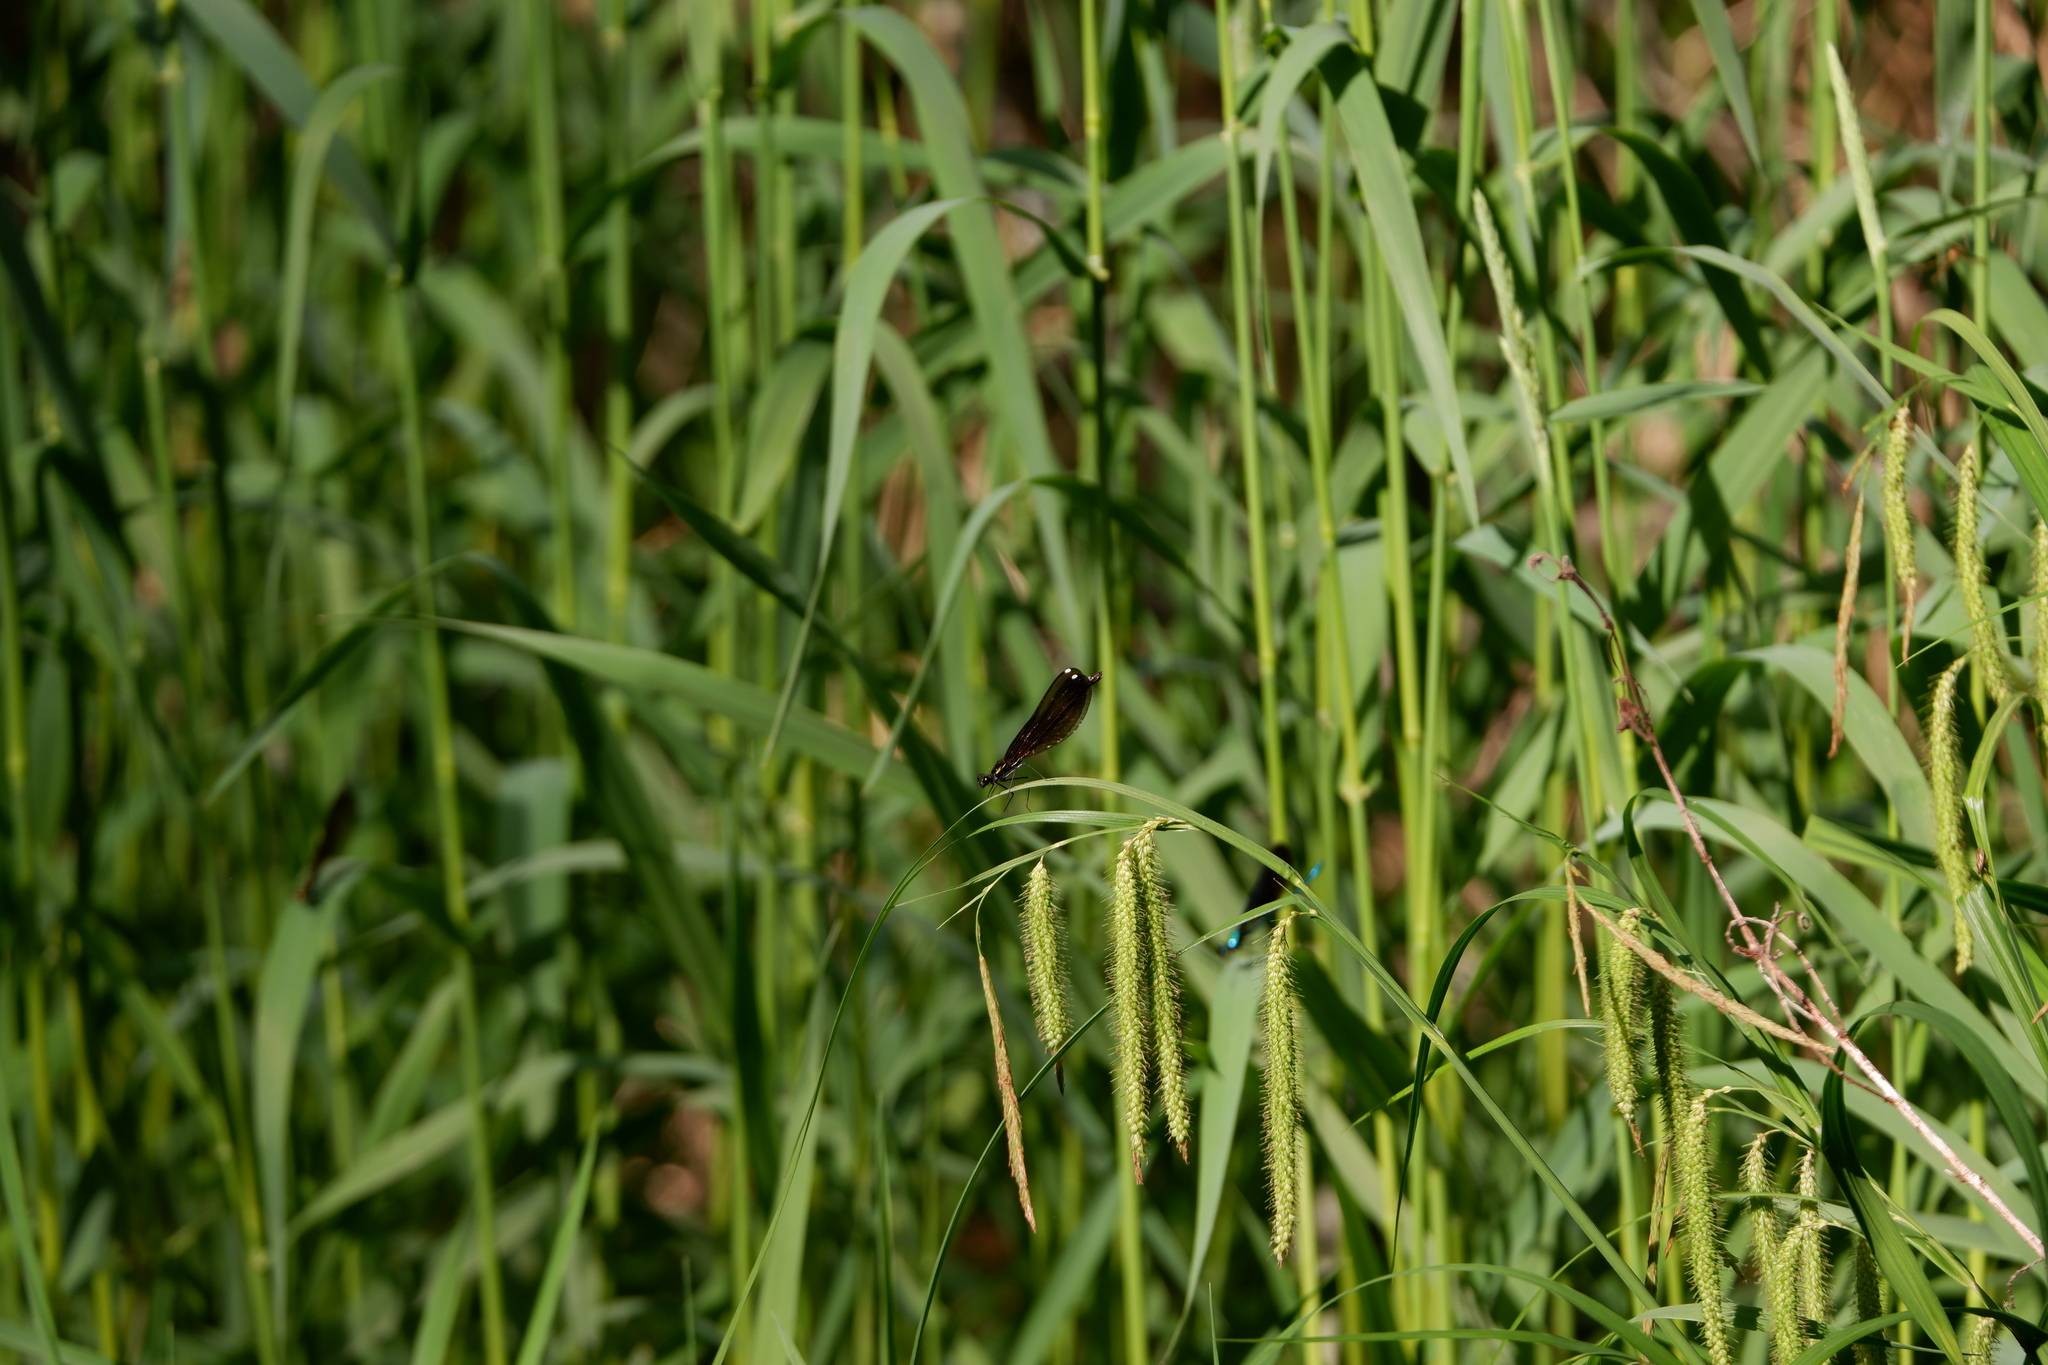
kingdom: Animalia
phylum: Arthropoda
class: Insecta
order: Odonata
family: Calopterygidae
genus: Calopteryx
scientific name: Calopteryx maculata
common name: Ebony jewelwing
